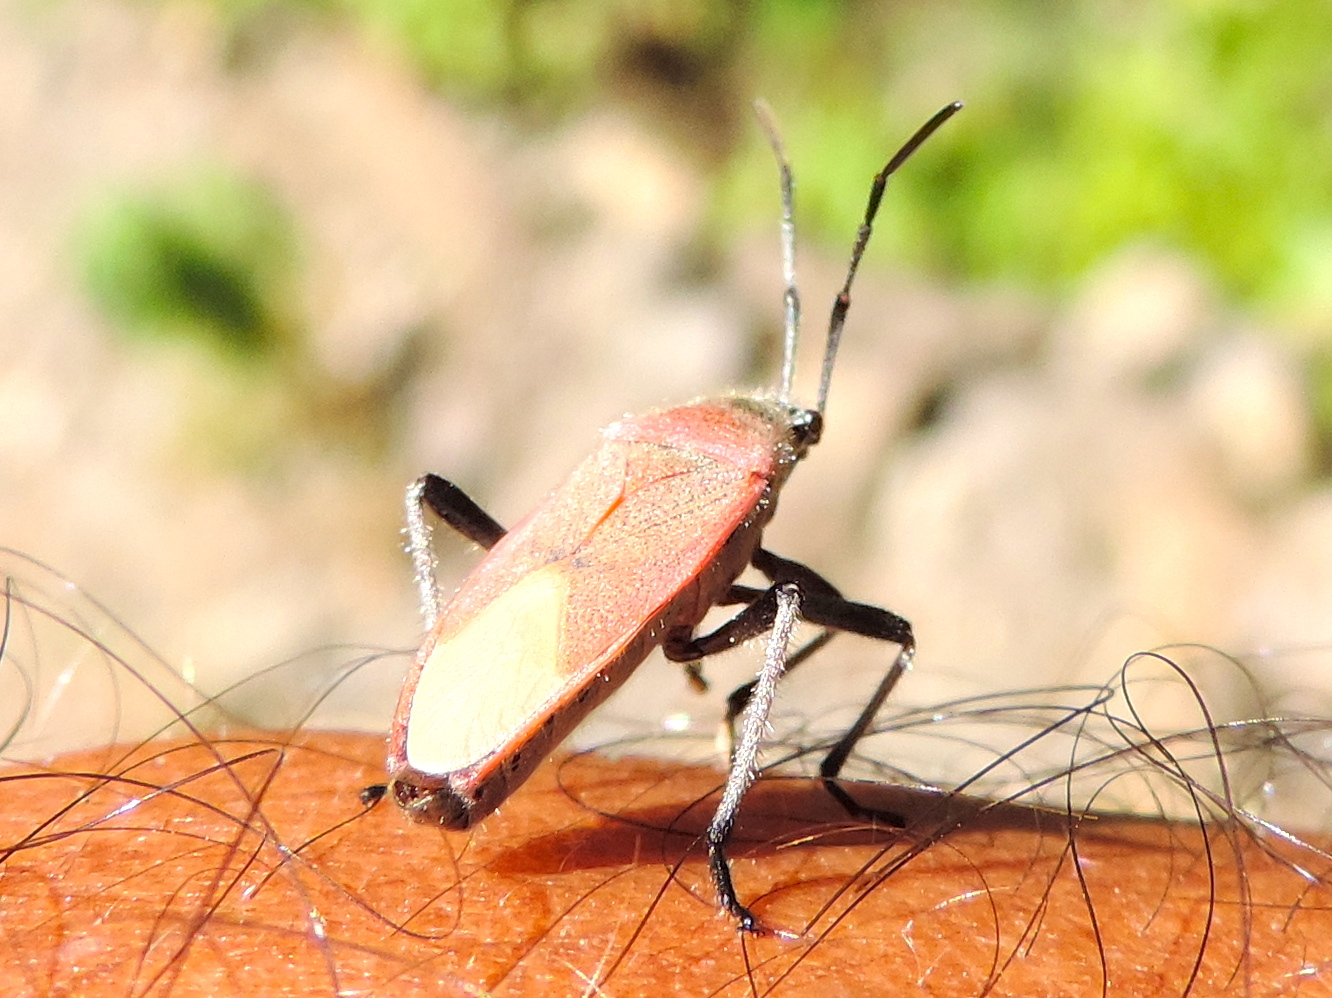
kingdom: Animalia
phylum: Arthropoda
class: Insecta
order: Hemiptera
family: Largidae
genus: Largus
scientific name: Largus subligatus
